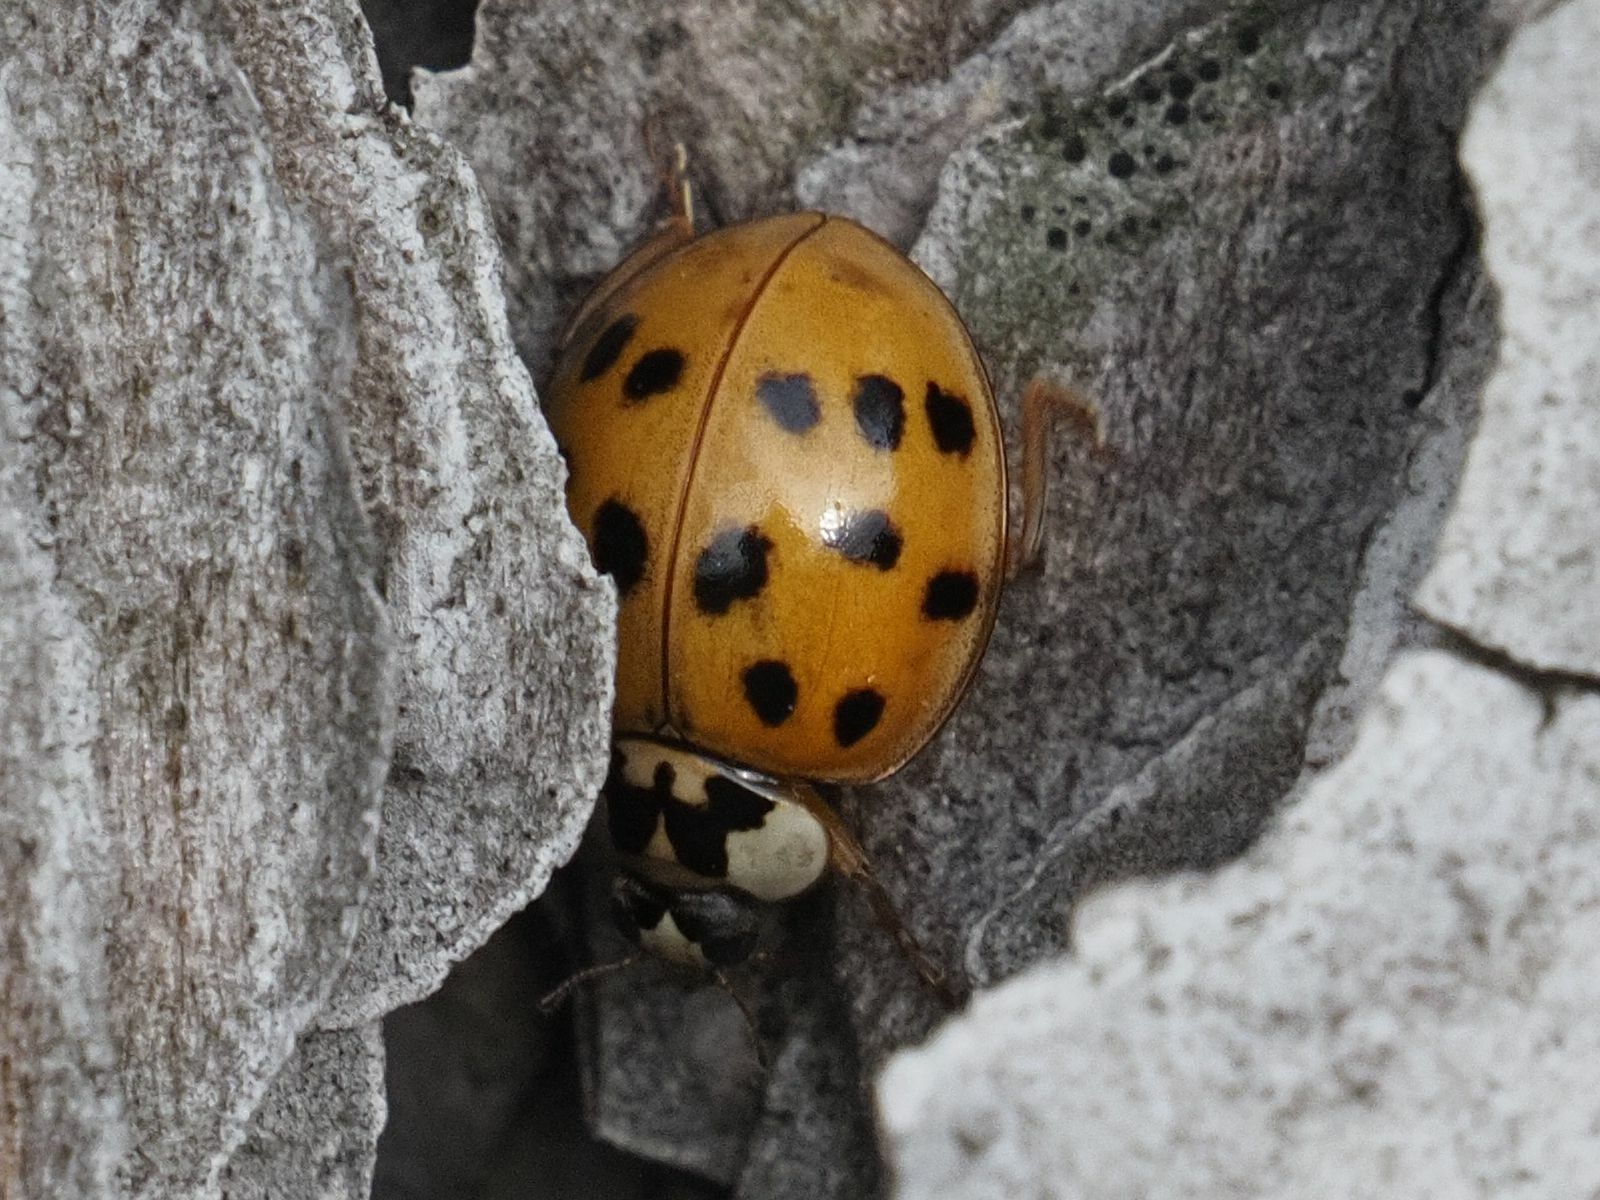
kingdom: Animalia
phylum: Arthropoda
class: Insecta
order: Coleoptera
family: Coccinellidae
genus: Harmonia
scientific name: Harmonia axyridis
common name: Harlequin ladybird
